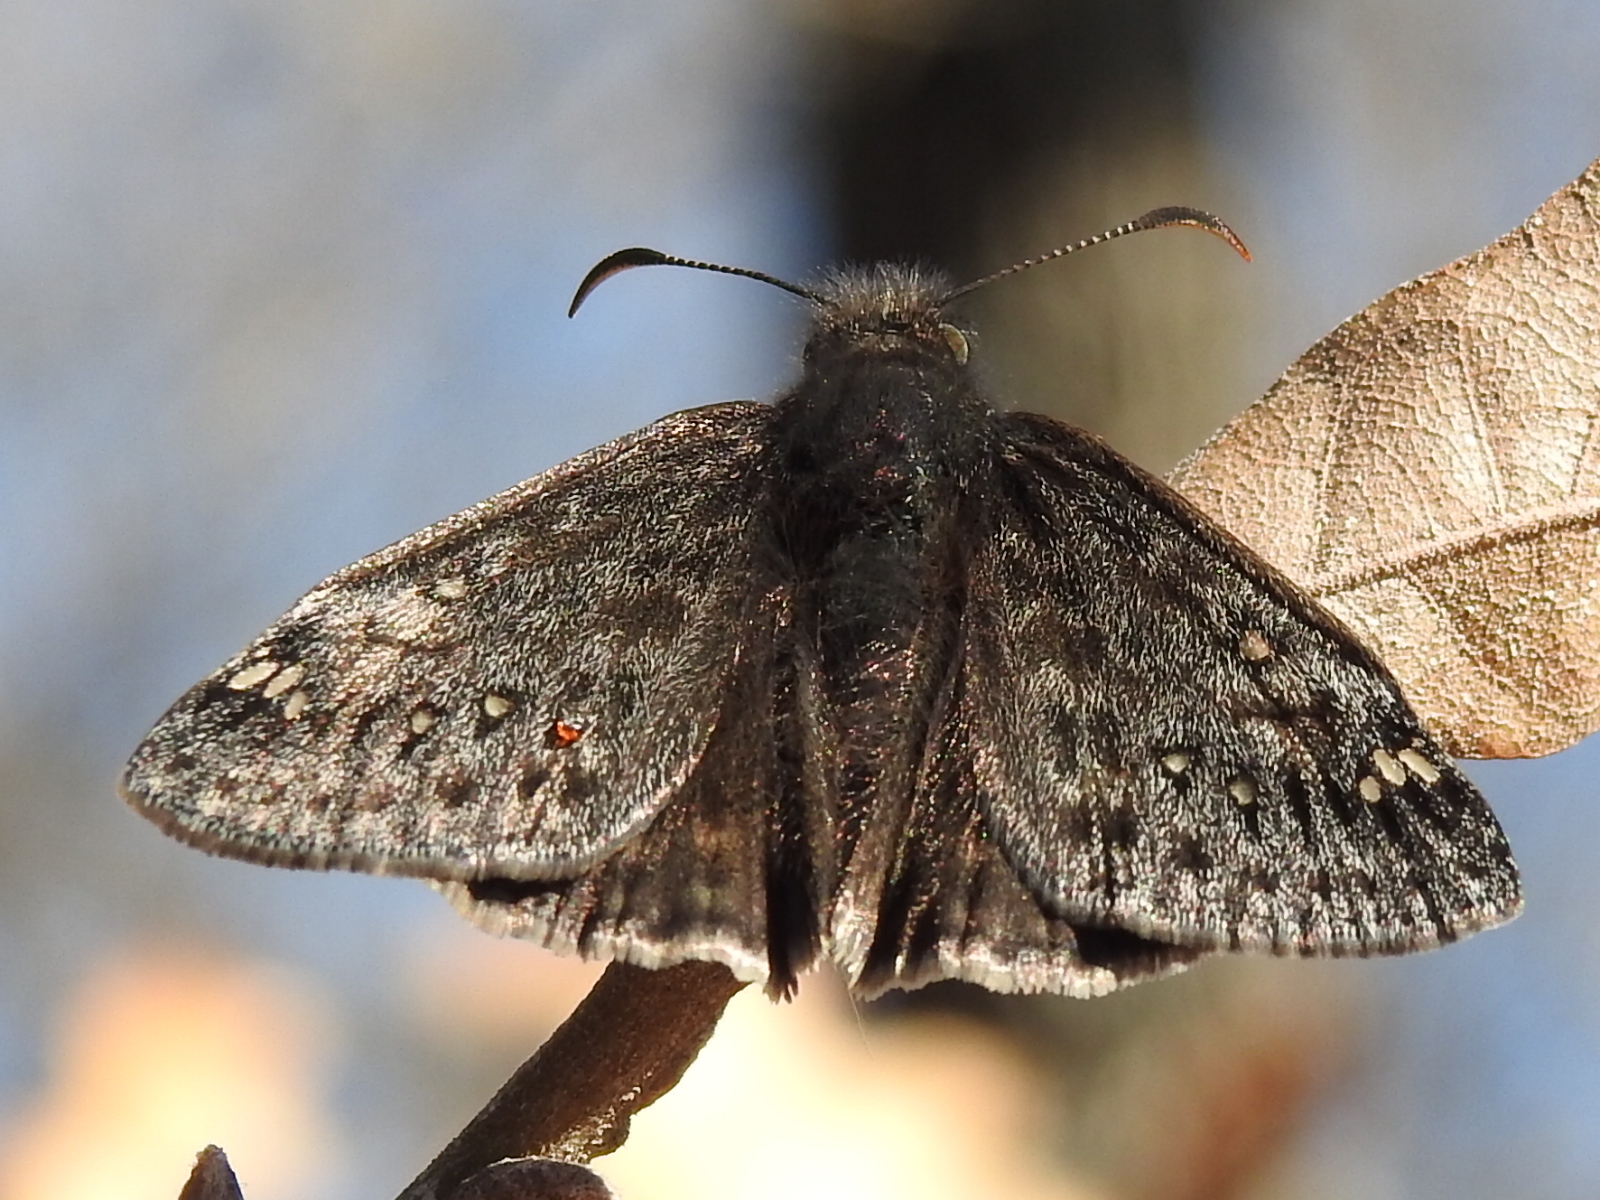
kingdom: Animalia
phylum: Arthropoda
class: Insecta
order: Lepidoptera
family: Hesperiidae
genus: Erynnis
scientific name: Erynnis juvenalis
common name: Juvenal's duskywing
